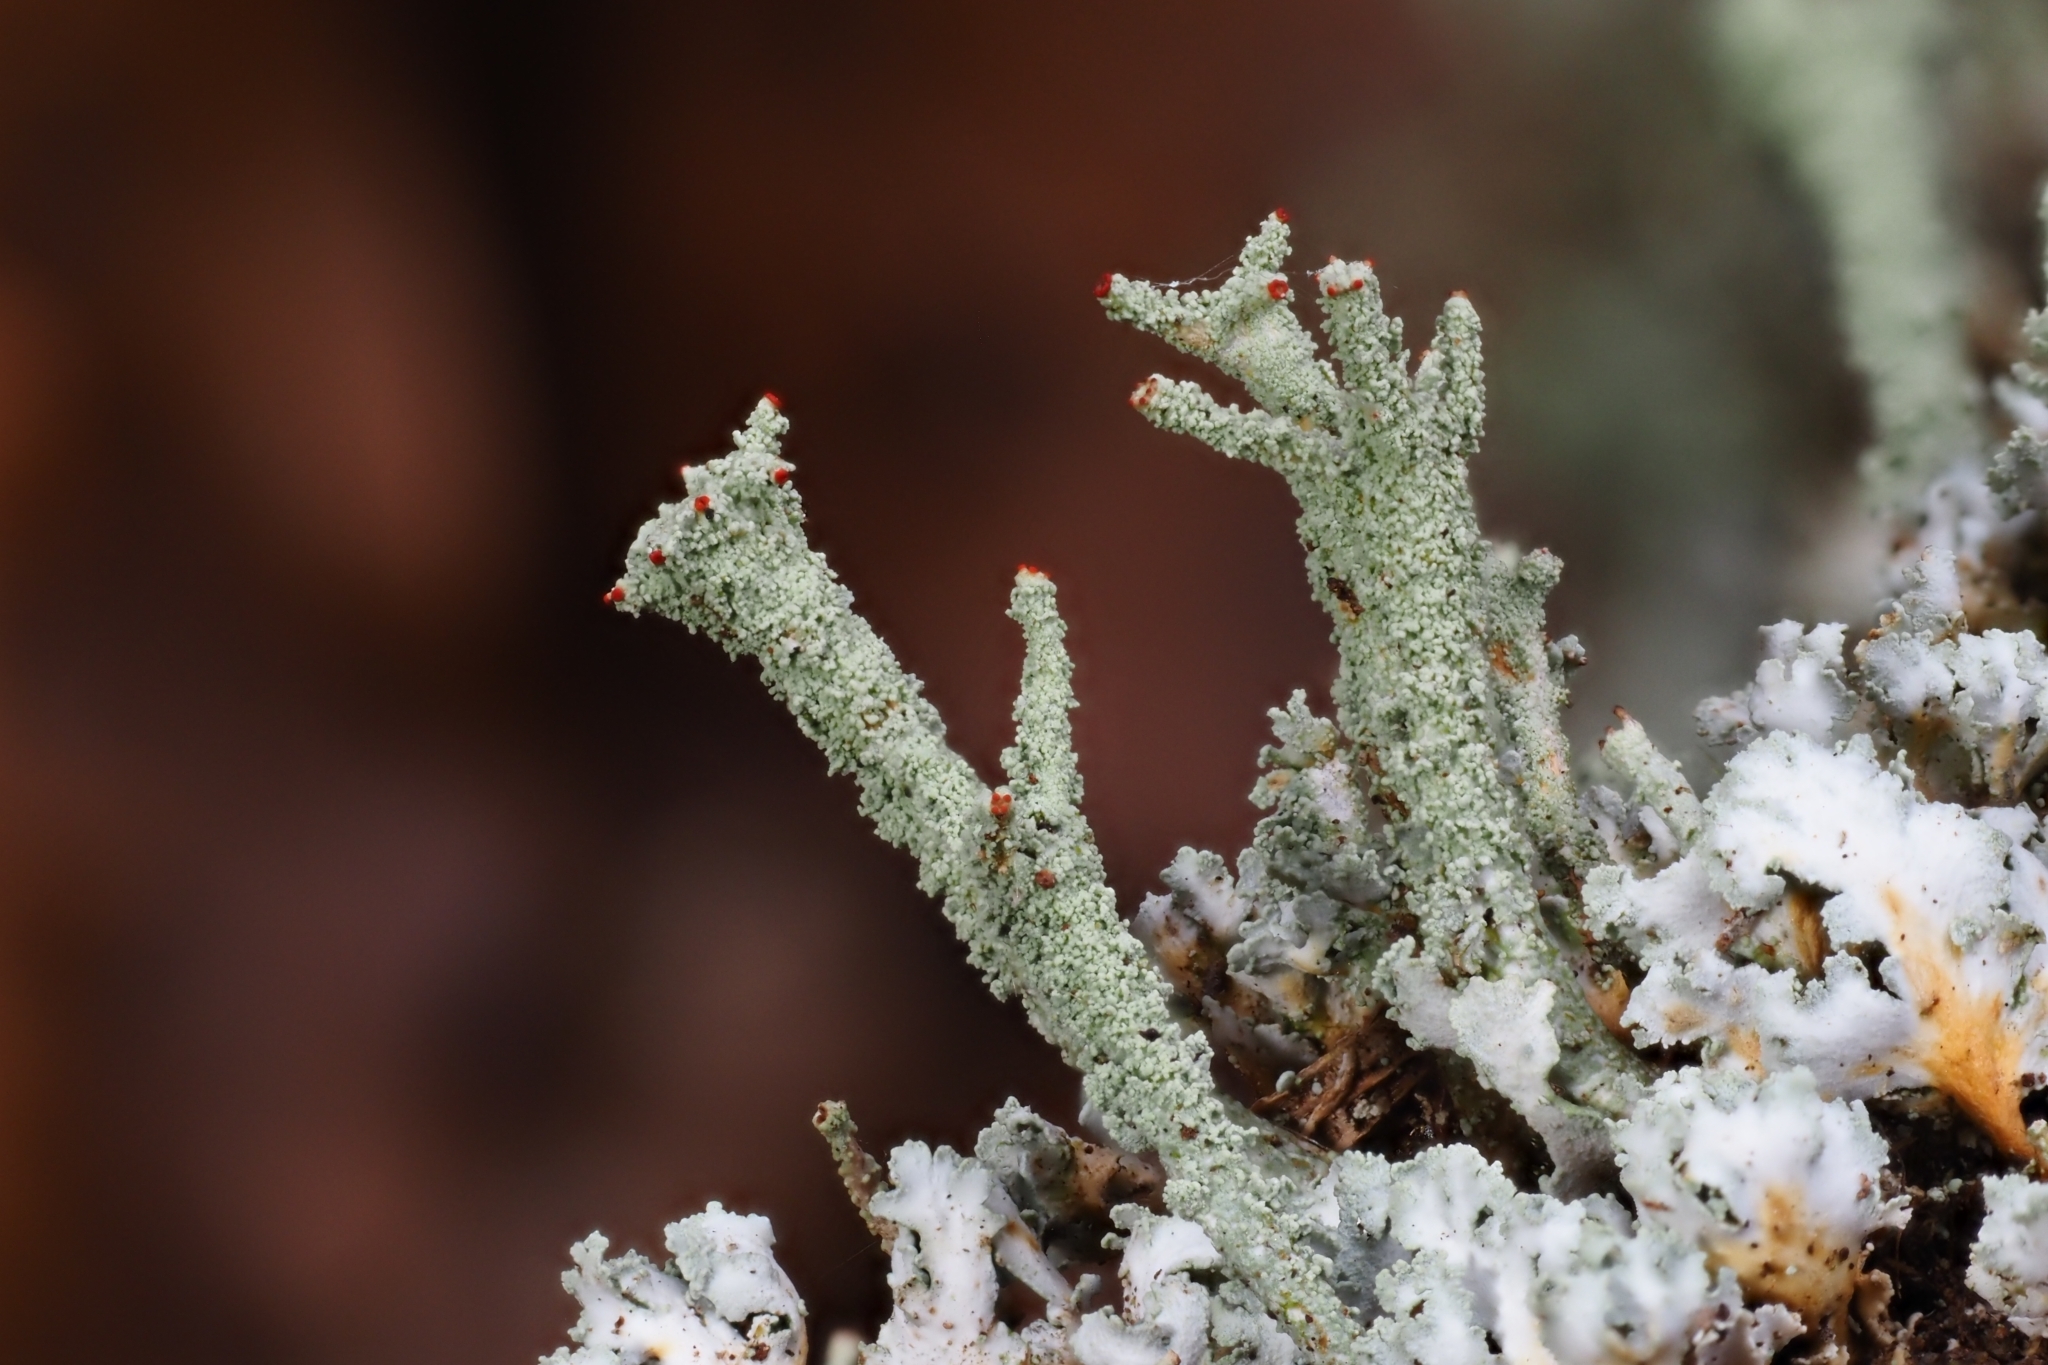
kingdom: Fungi
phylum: Ascomycota
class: Lecanoromycetes
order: Lecanorales
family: Cladoniaceae
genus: Cladonia
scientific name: Cladonia polydactyla
